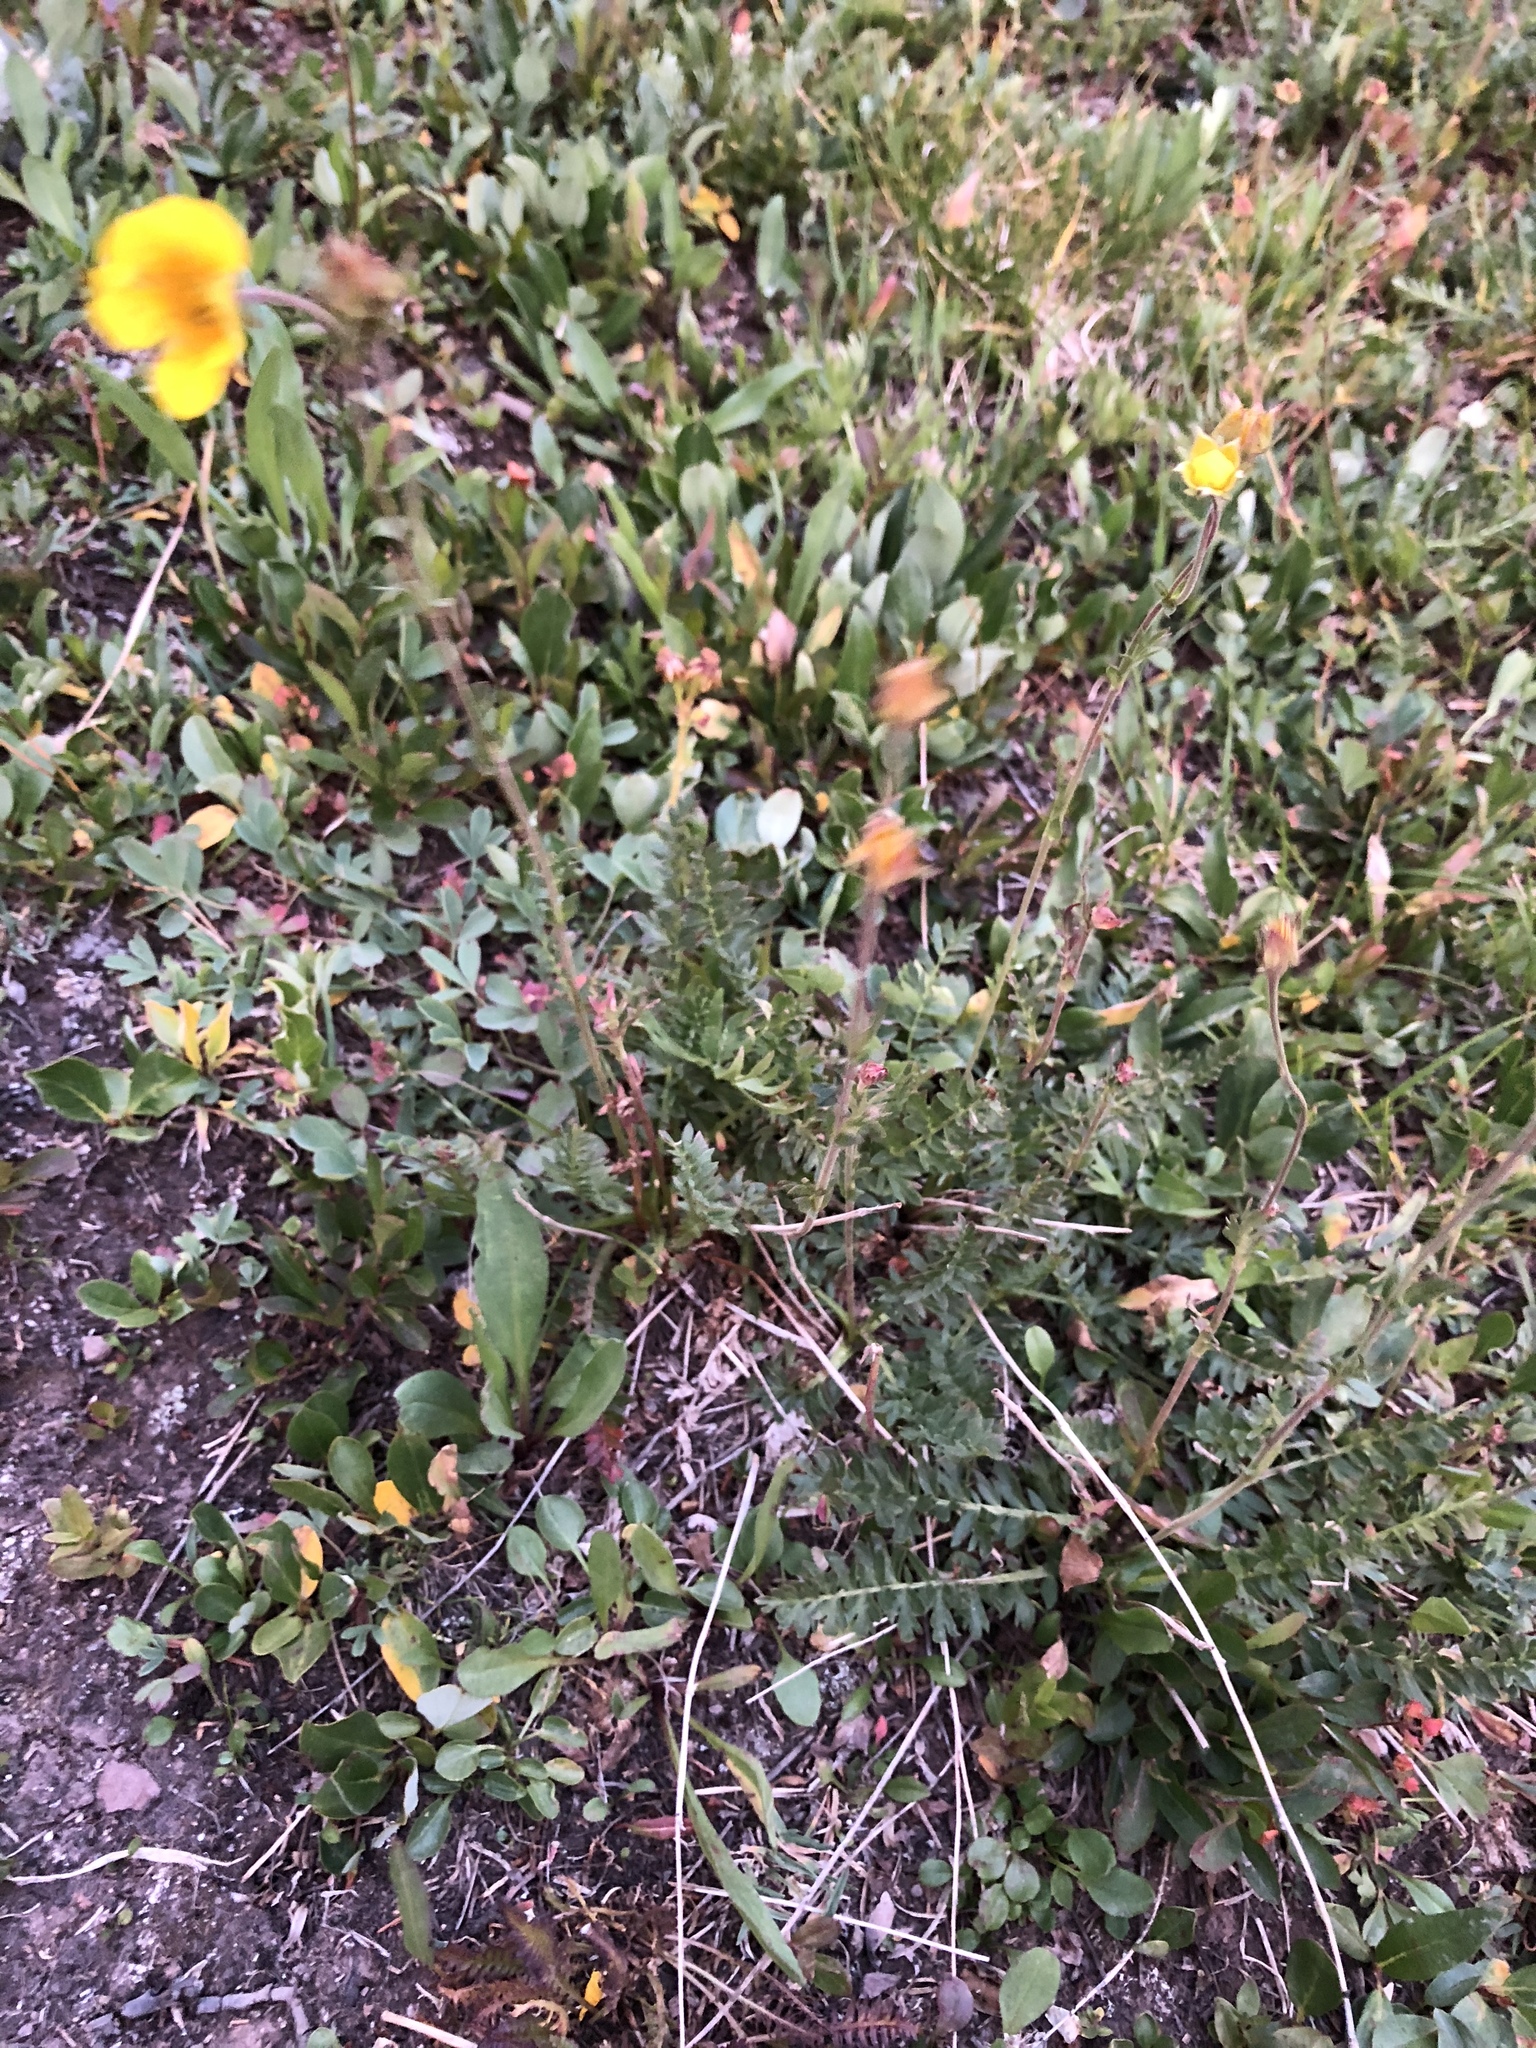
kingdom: Plantae
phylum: Tracheophyta
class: Magnoliopsida
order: Rosales
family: Rosaceae
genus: Geum
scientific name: Geum rossii
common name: Alpine avens
